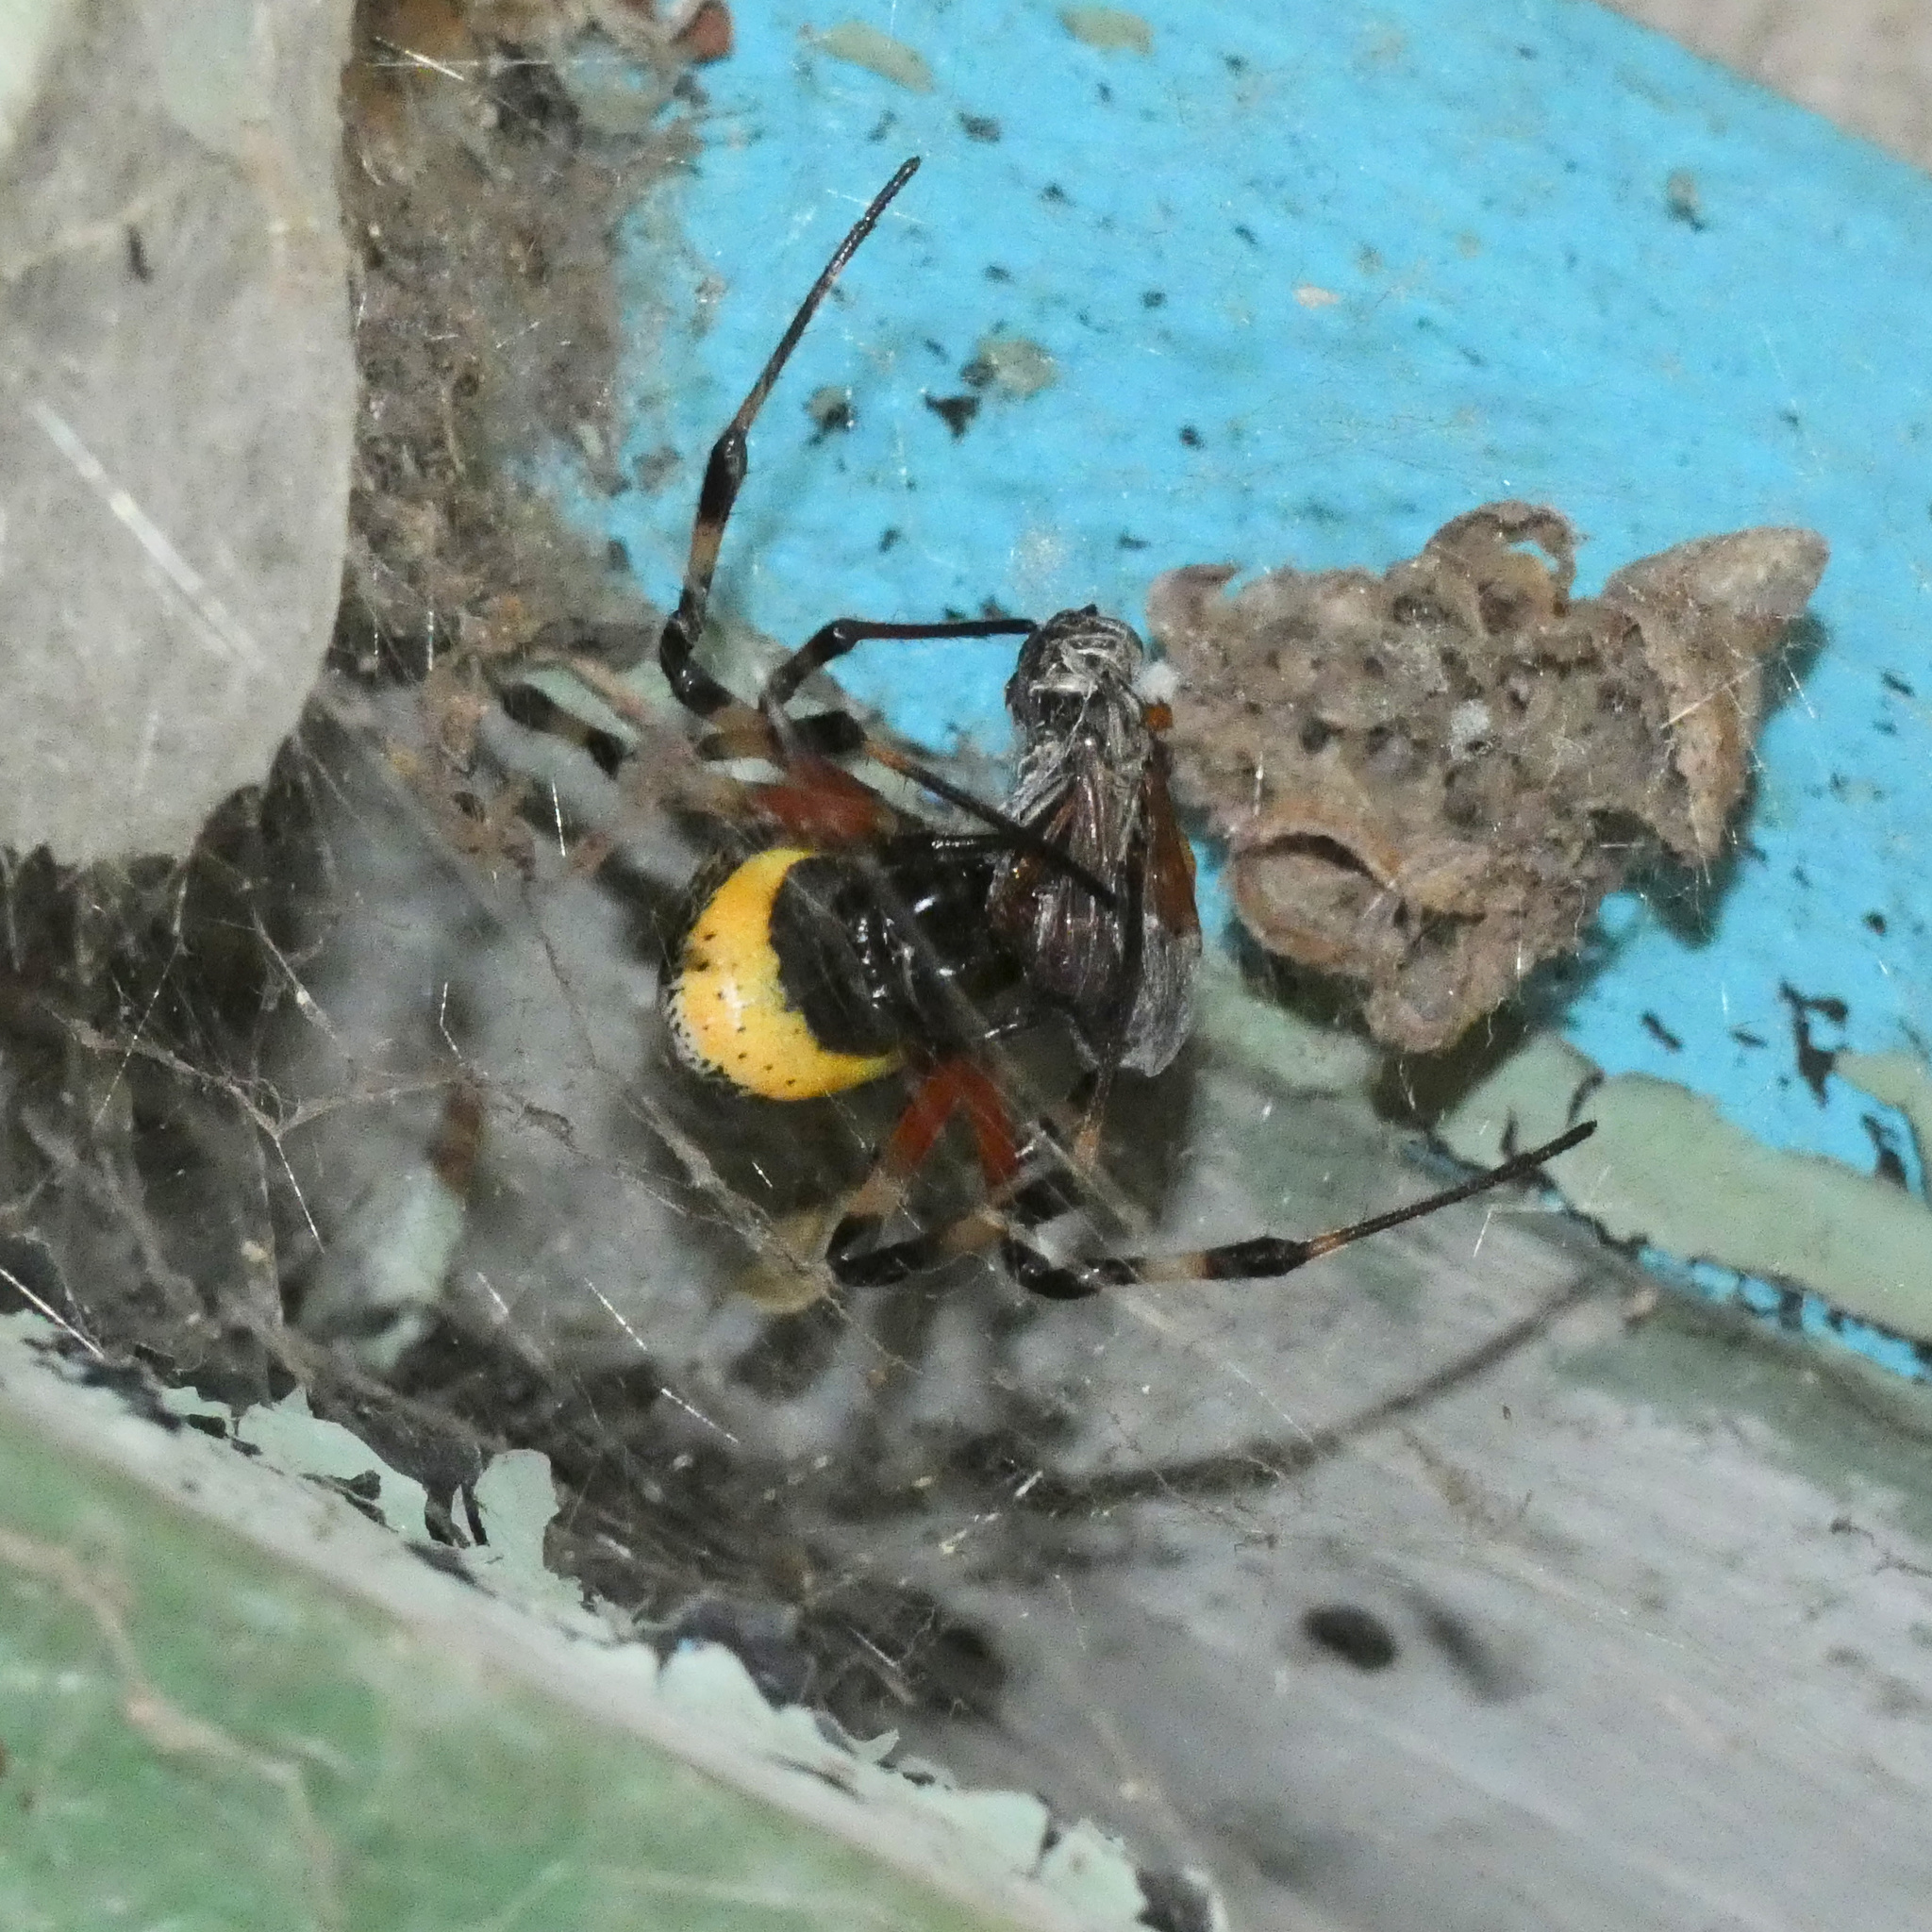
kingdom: Animalia
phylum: Arthropoda
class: Arachnida
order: Araneae
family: Araneidae
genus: Nephilingis
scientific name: Nephilingis cruentata
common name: African hermit spider
